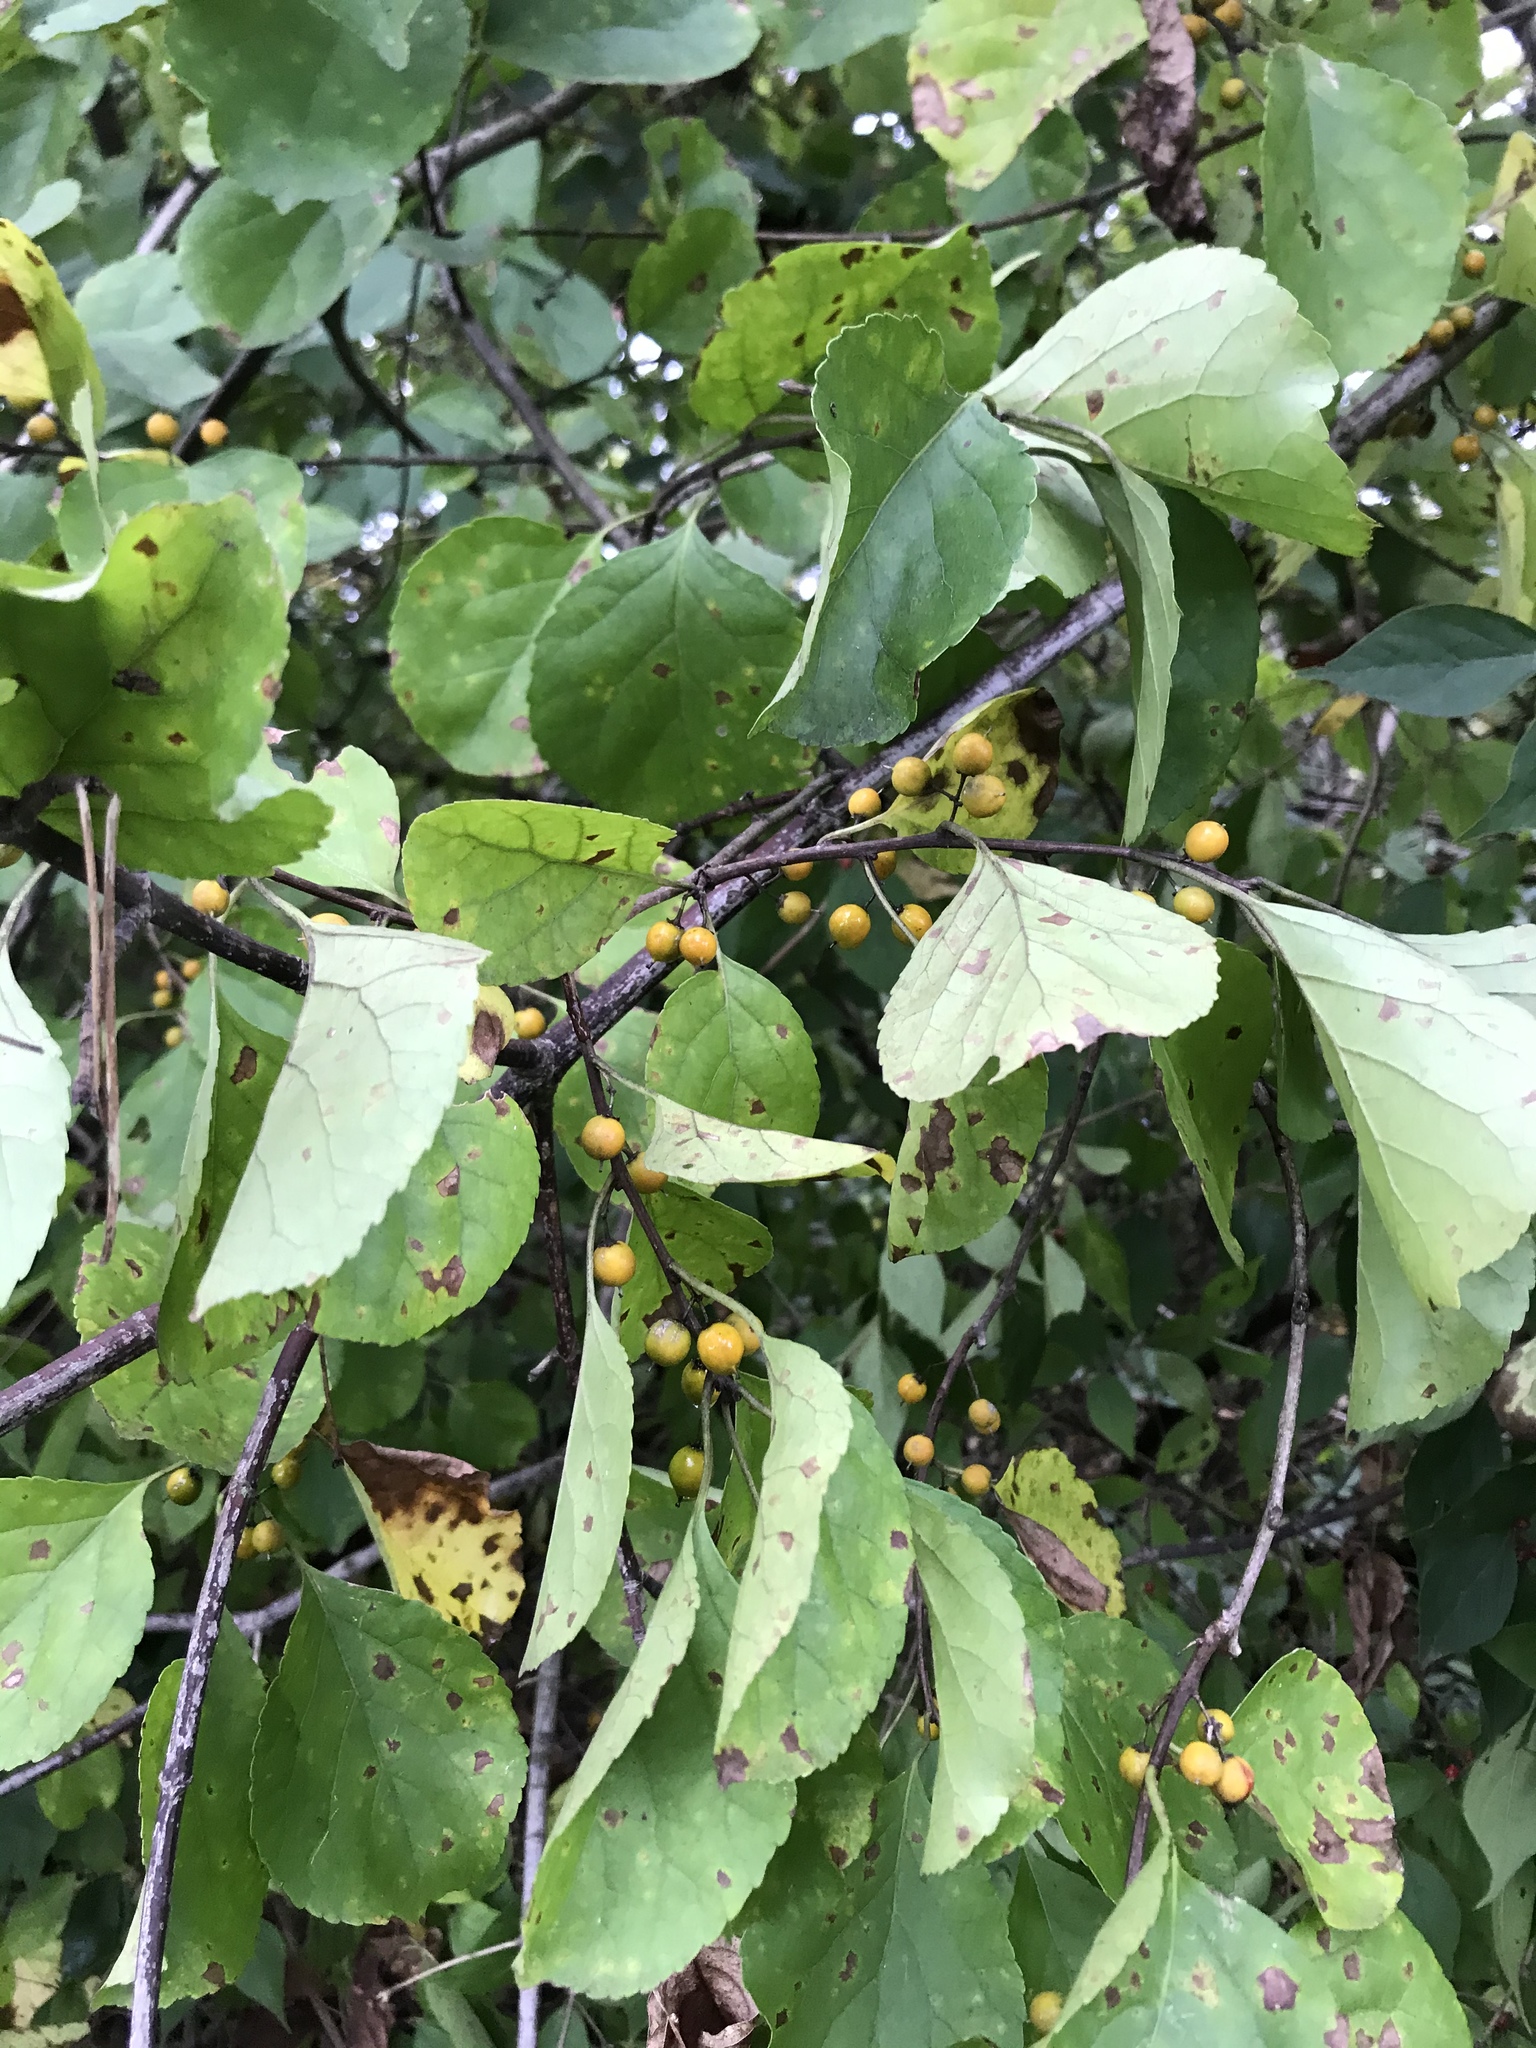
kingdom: Plantae
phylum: Tracheophyta
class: Magnoliopsida
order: Celastrales
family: Celastraceae
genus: Celastrus
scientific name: Celastrus orbiculatus
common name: Oriental bittersweet
